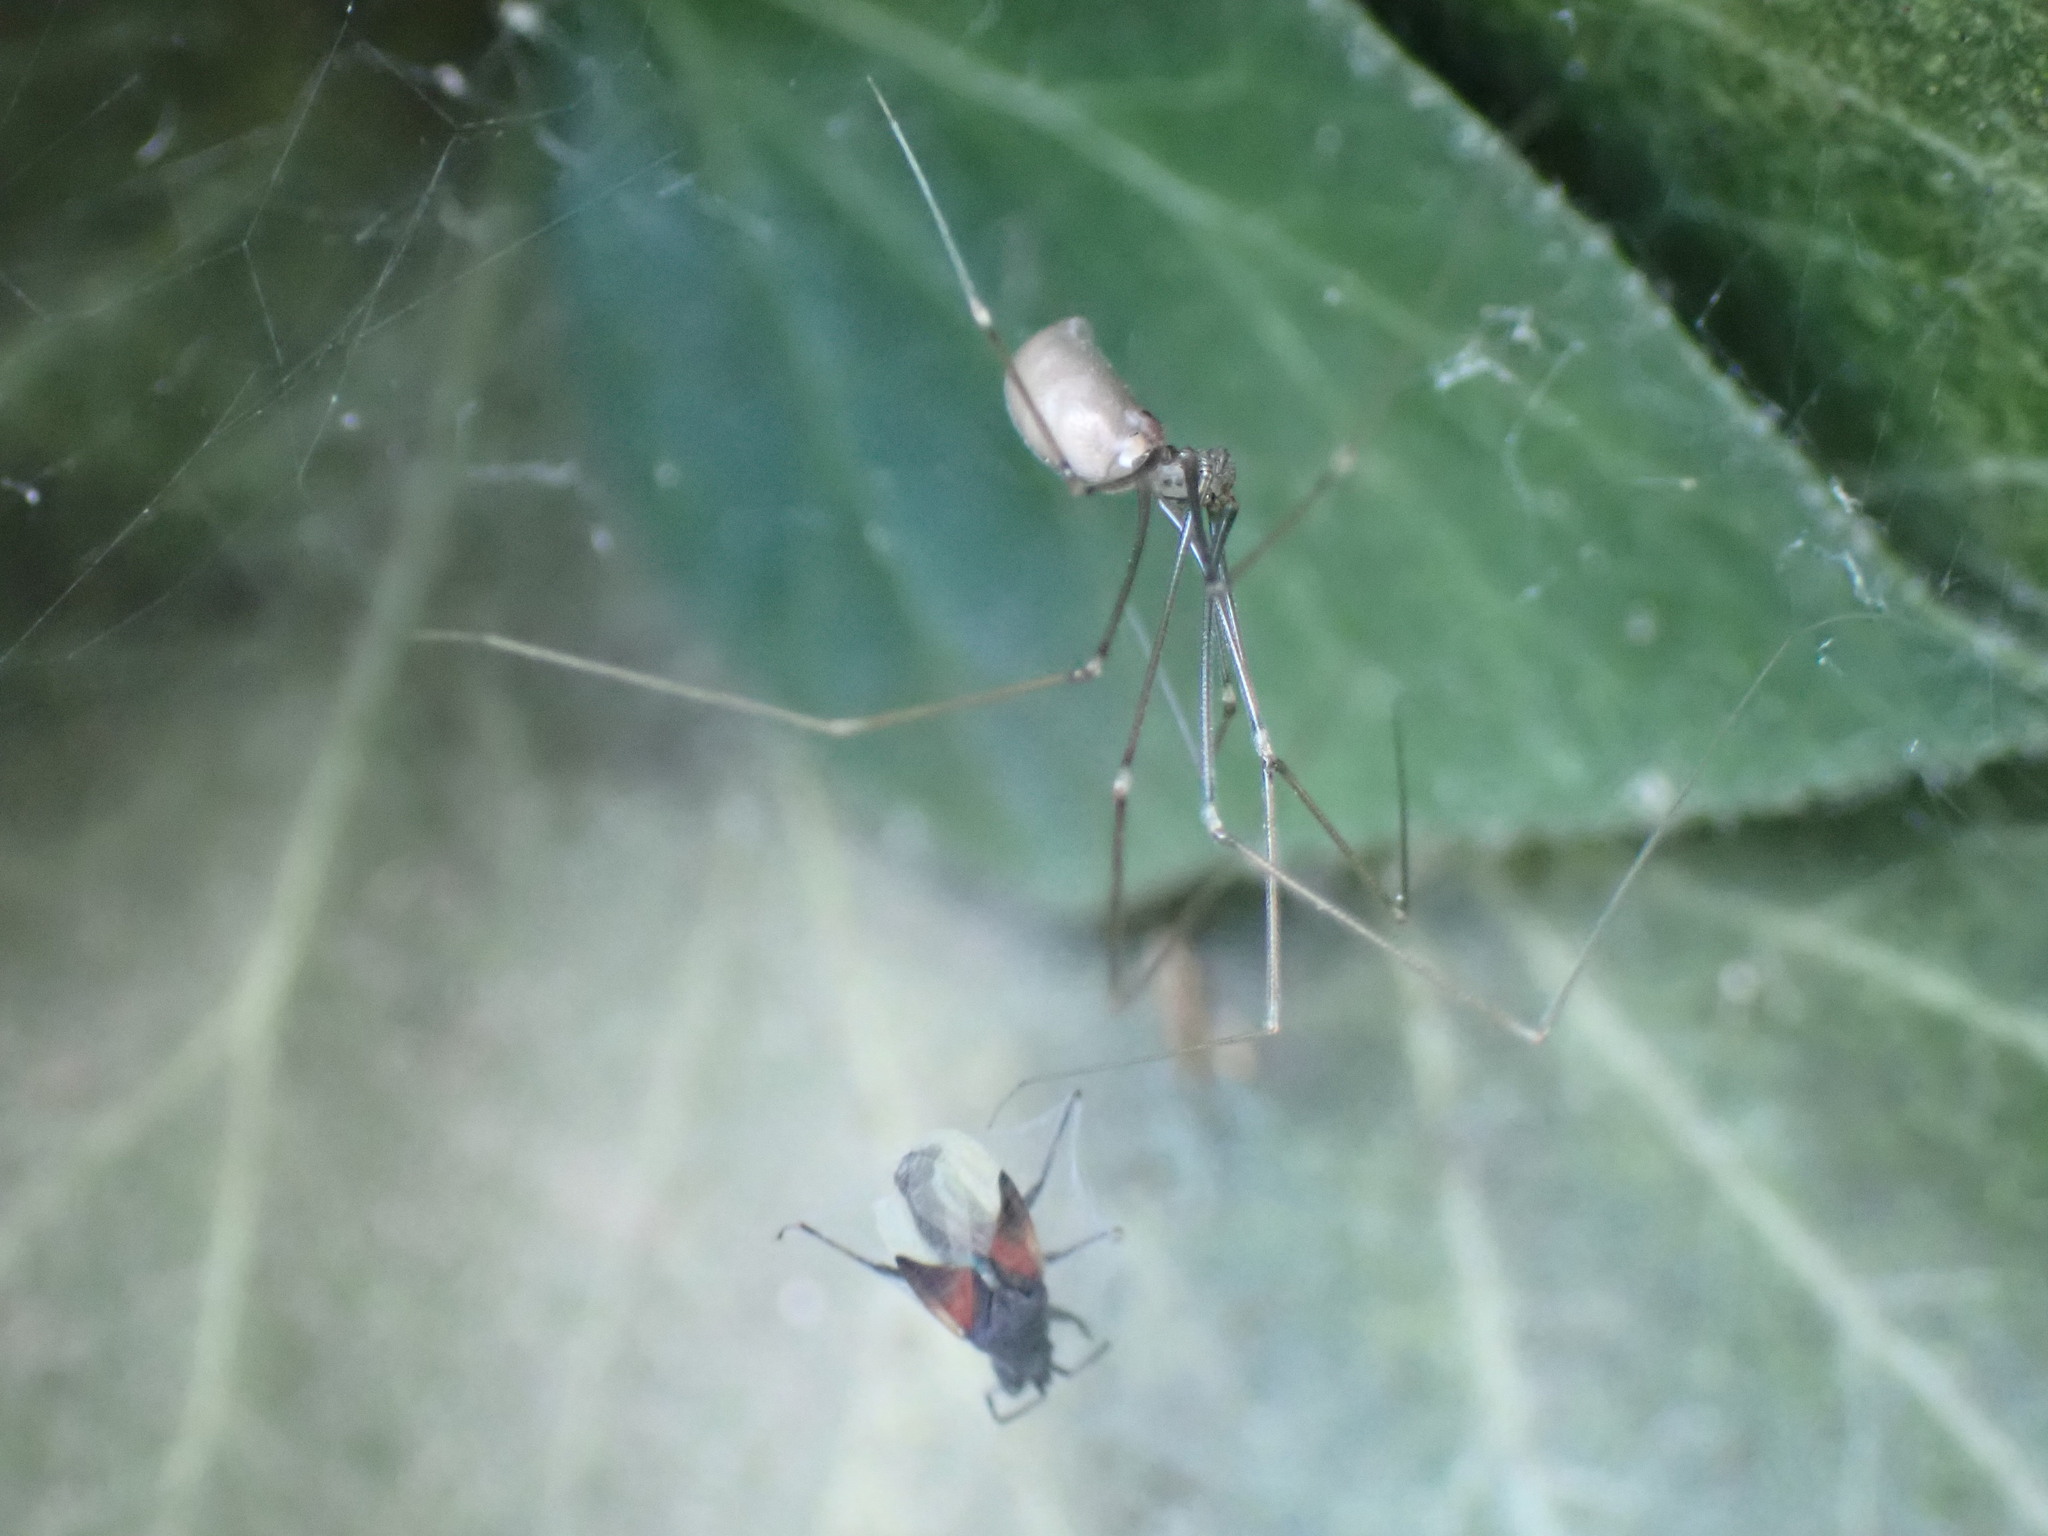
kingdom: Animalia
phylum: Arthropoda
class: Insecta
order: Hemiptera
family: Oxycarenidae
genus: Oxycarenus
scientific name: Oxycarenus lavaterae
